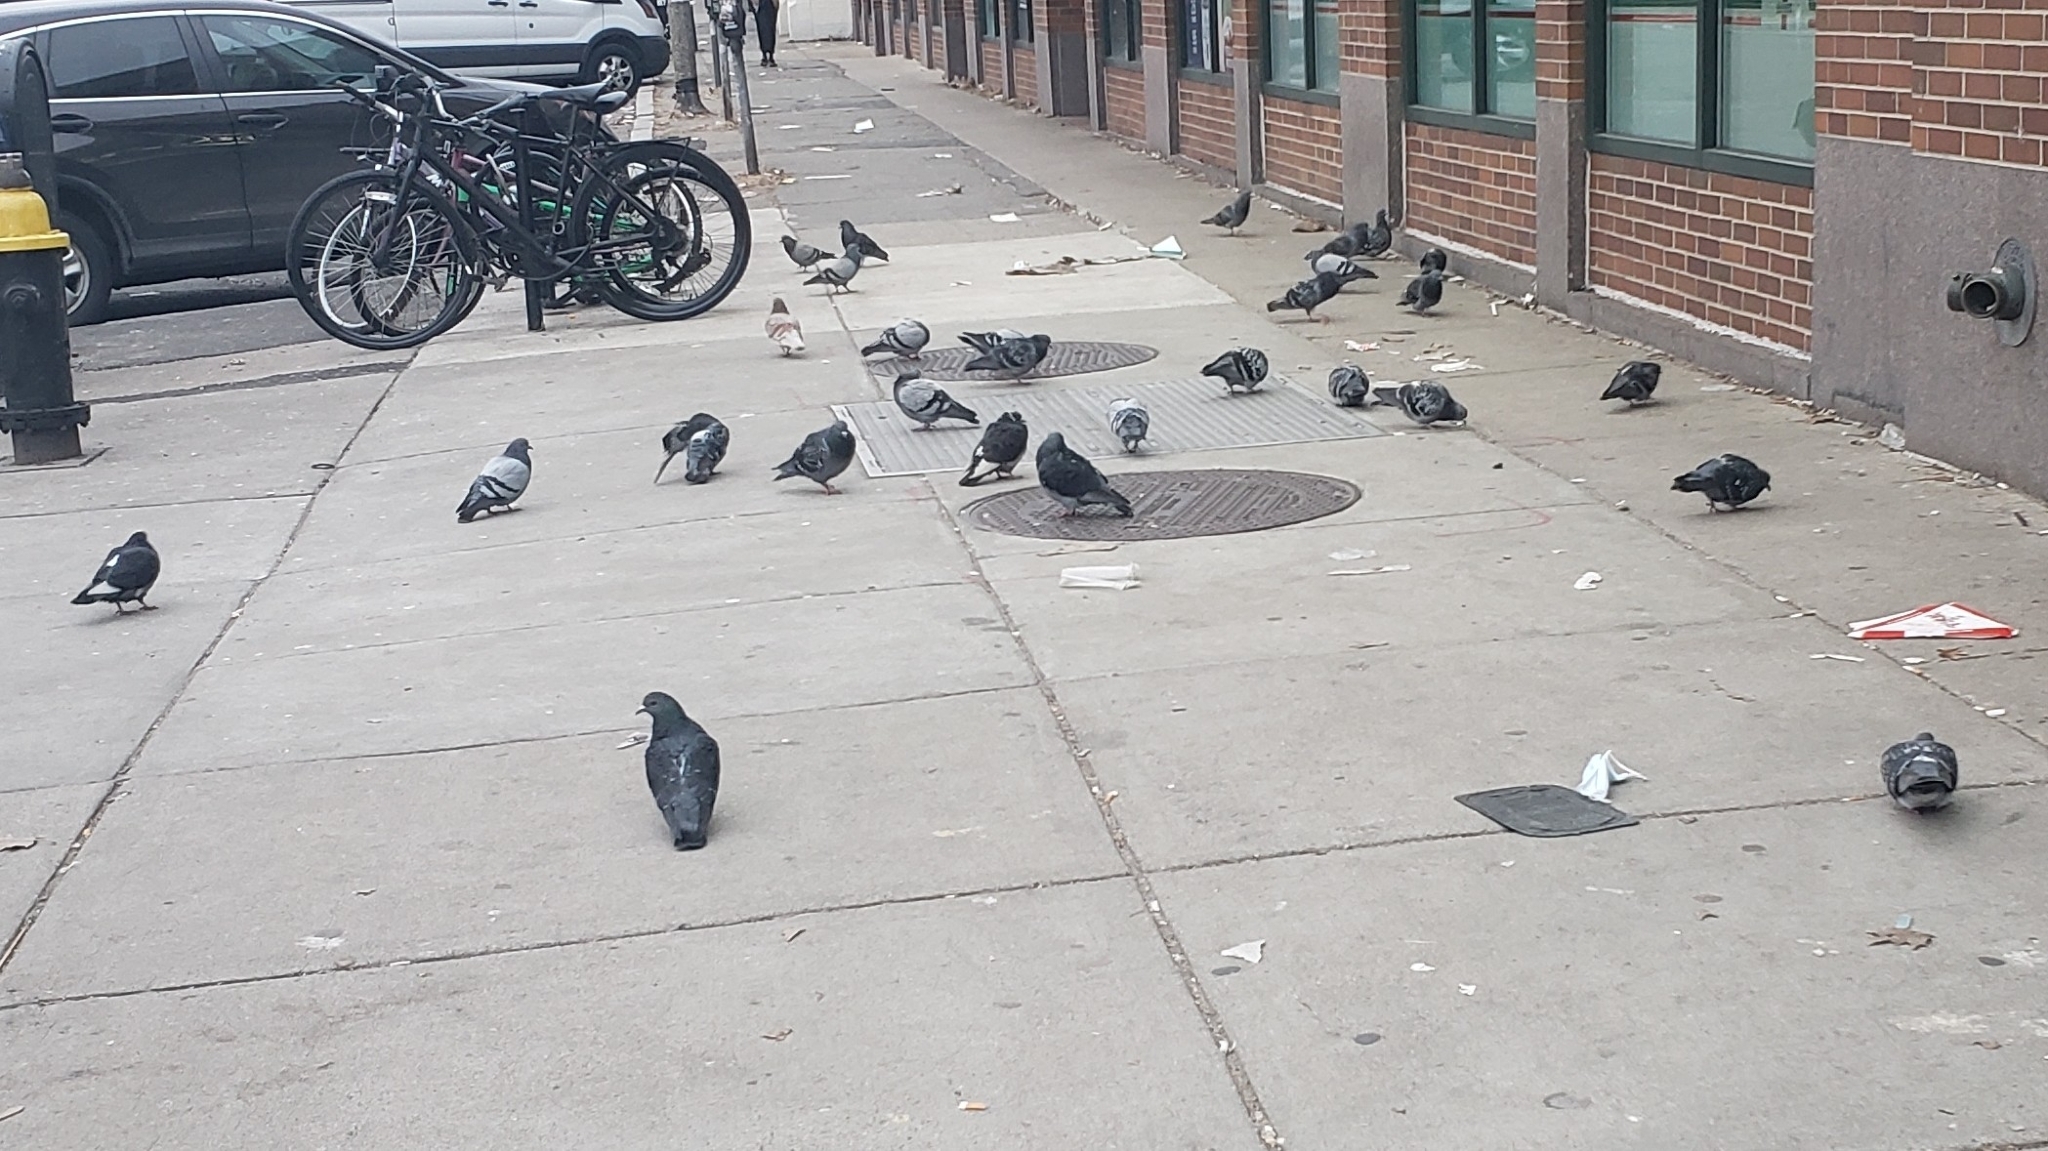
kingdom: Animalia
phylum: Chordata
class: Aves
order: Columbiformes
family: Columbidae
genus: Columba
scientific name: Columba livia
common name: Rock pigeon
